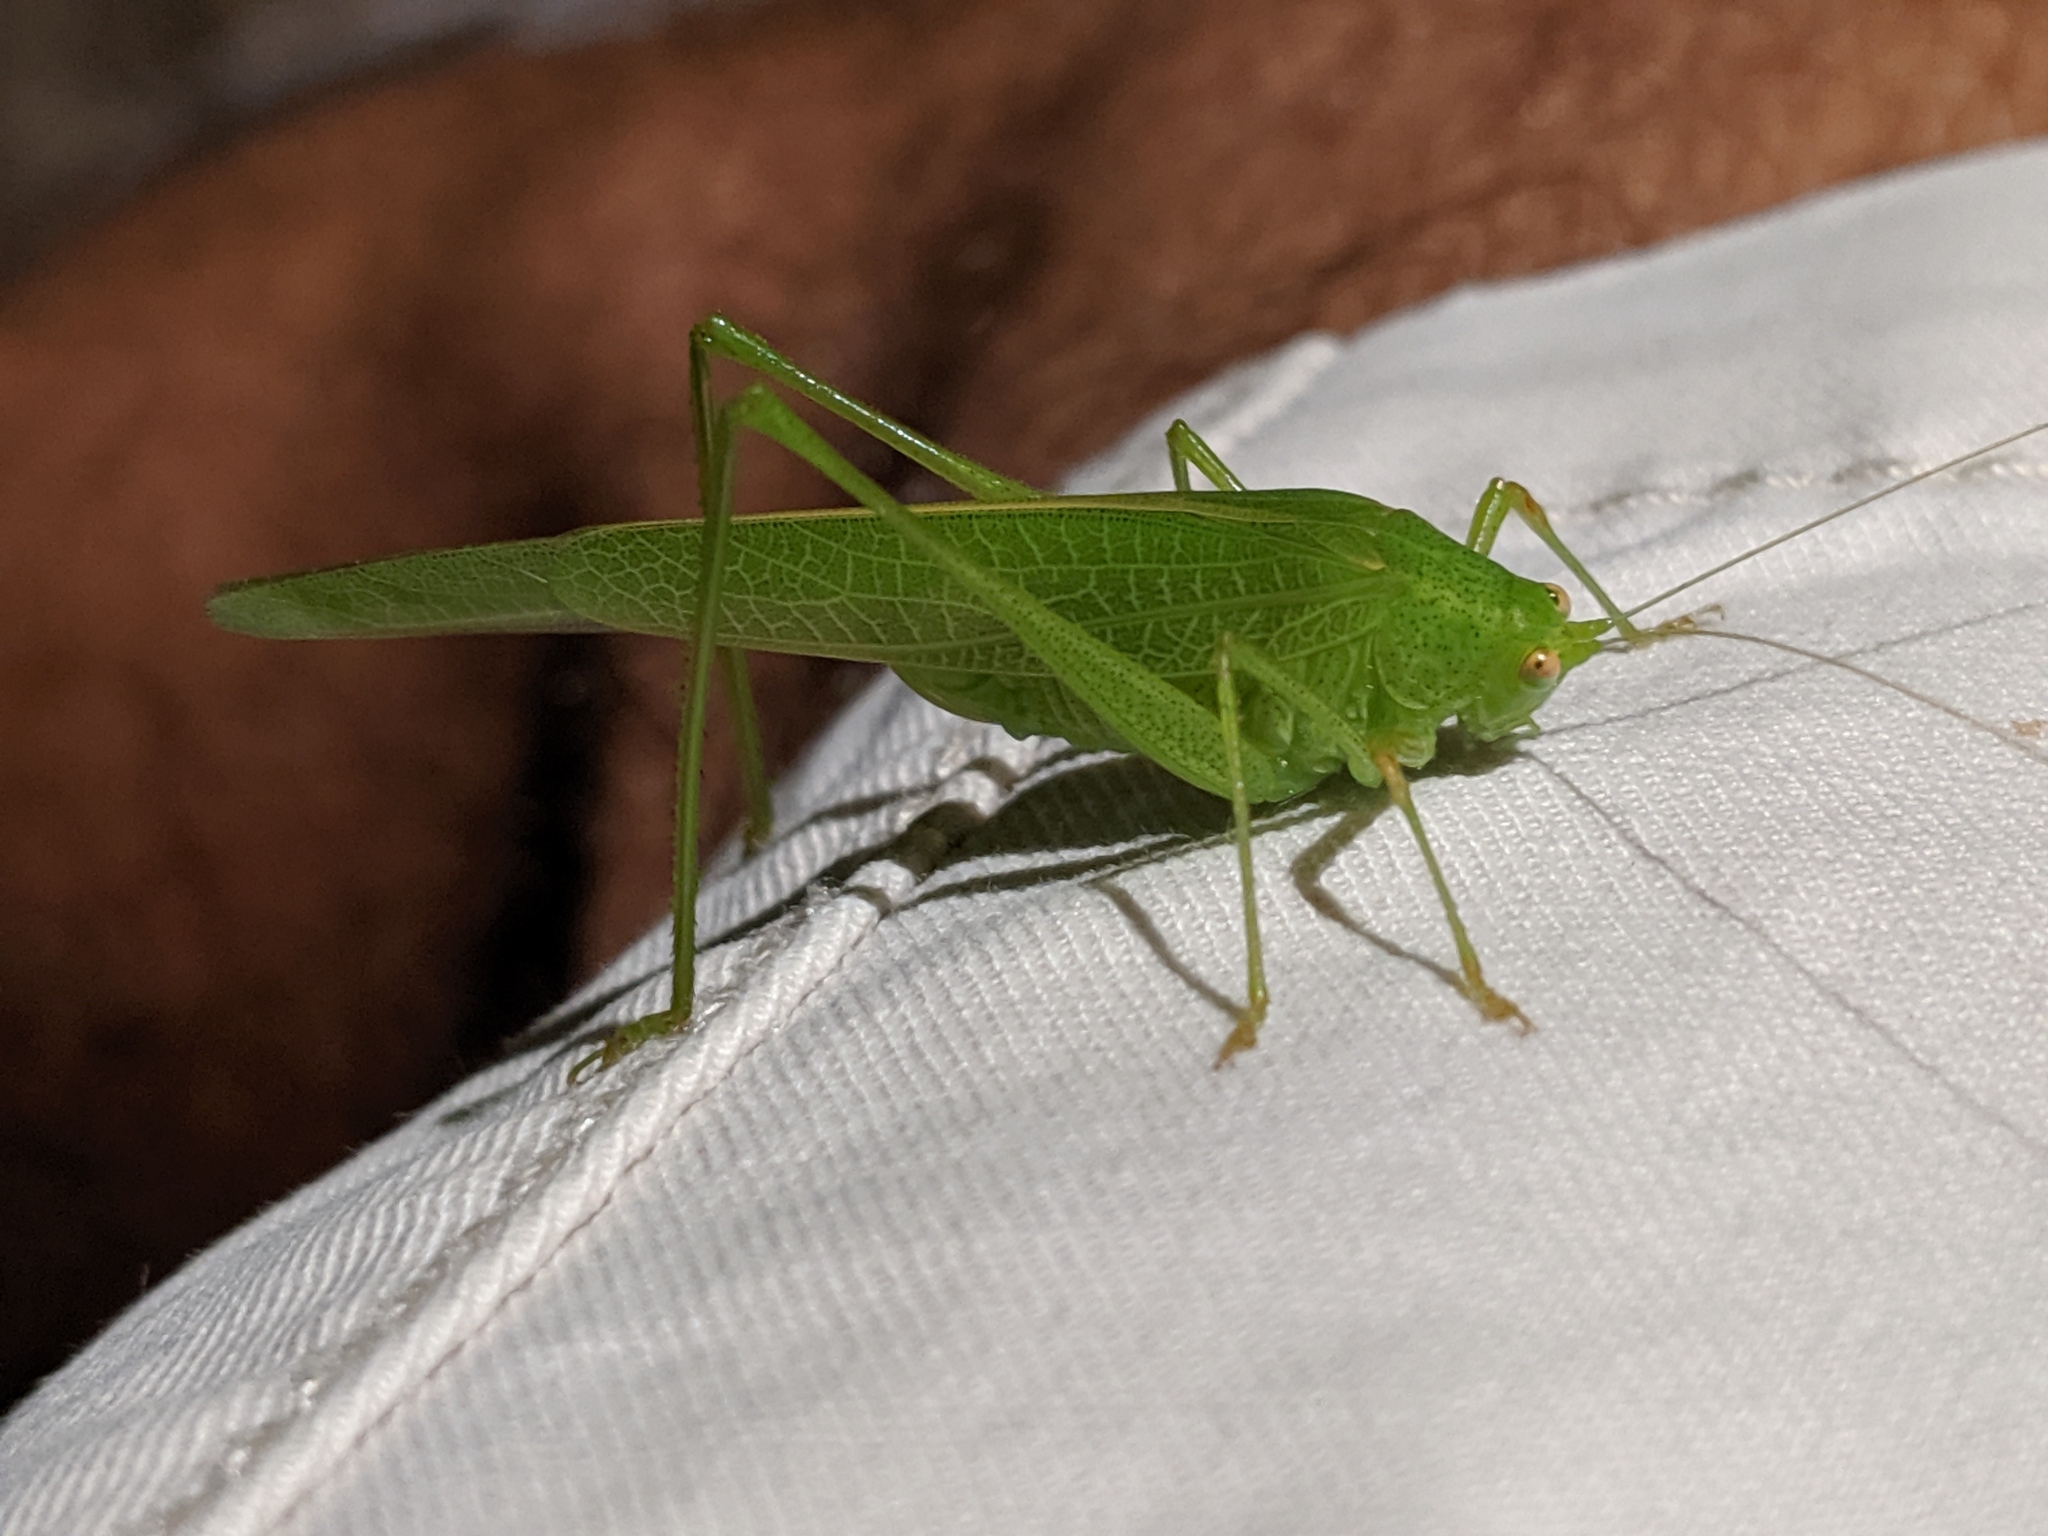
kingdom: Animalia
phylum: Arthropoda
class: Insecta
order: Orthoptera
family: Tettigoniidae
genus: Phaneroptera
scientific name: Phaneroptera nana
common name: Southern sickle bush-cricket
